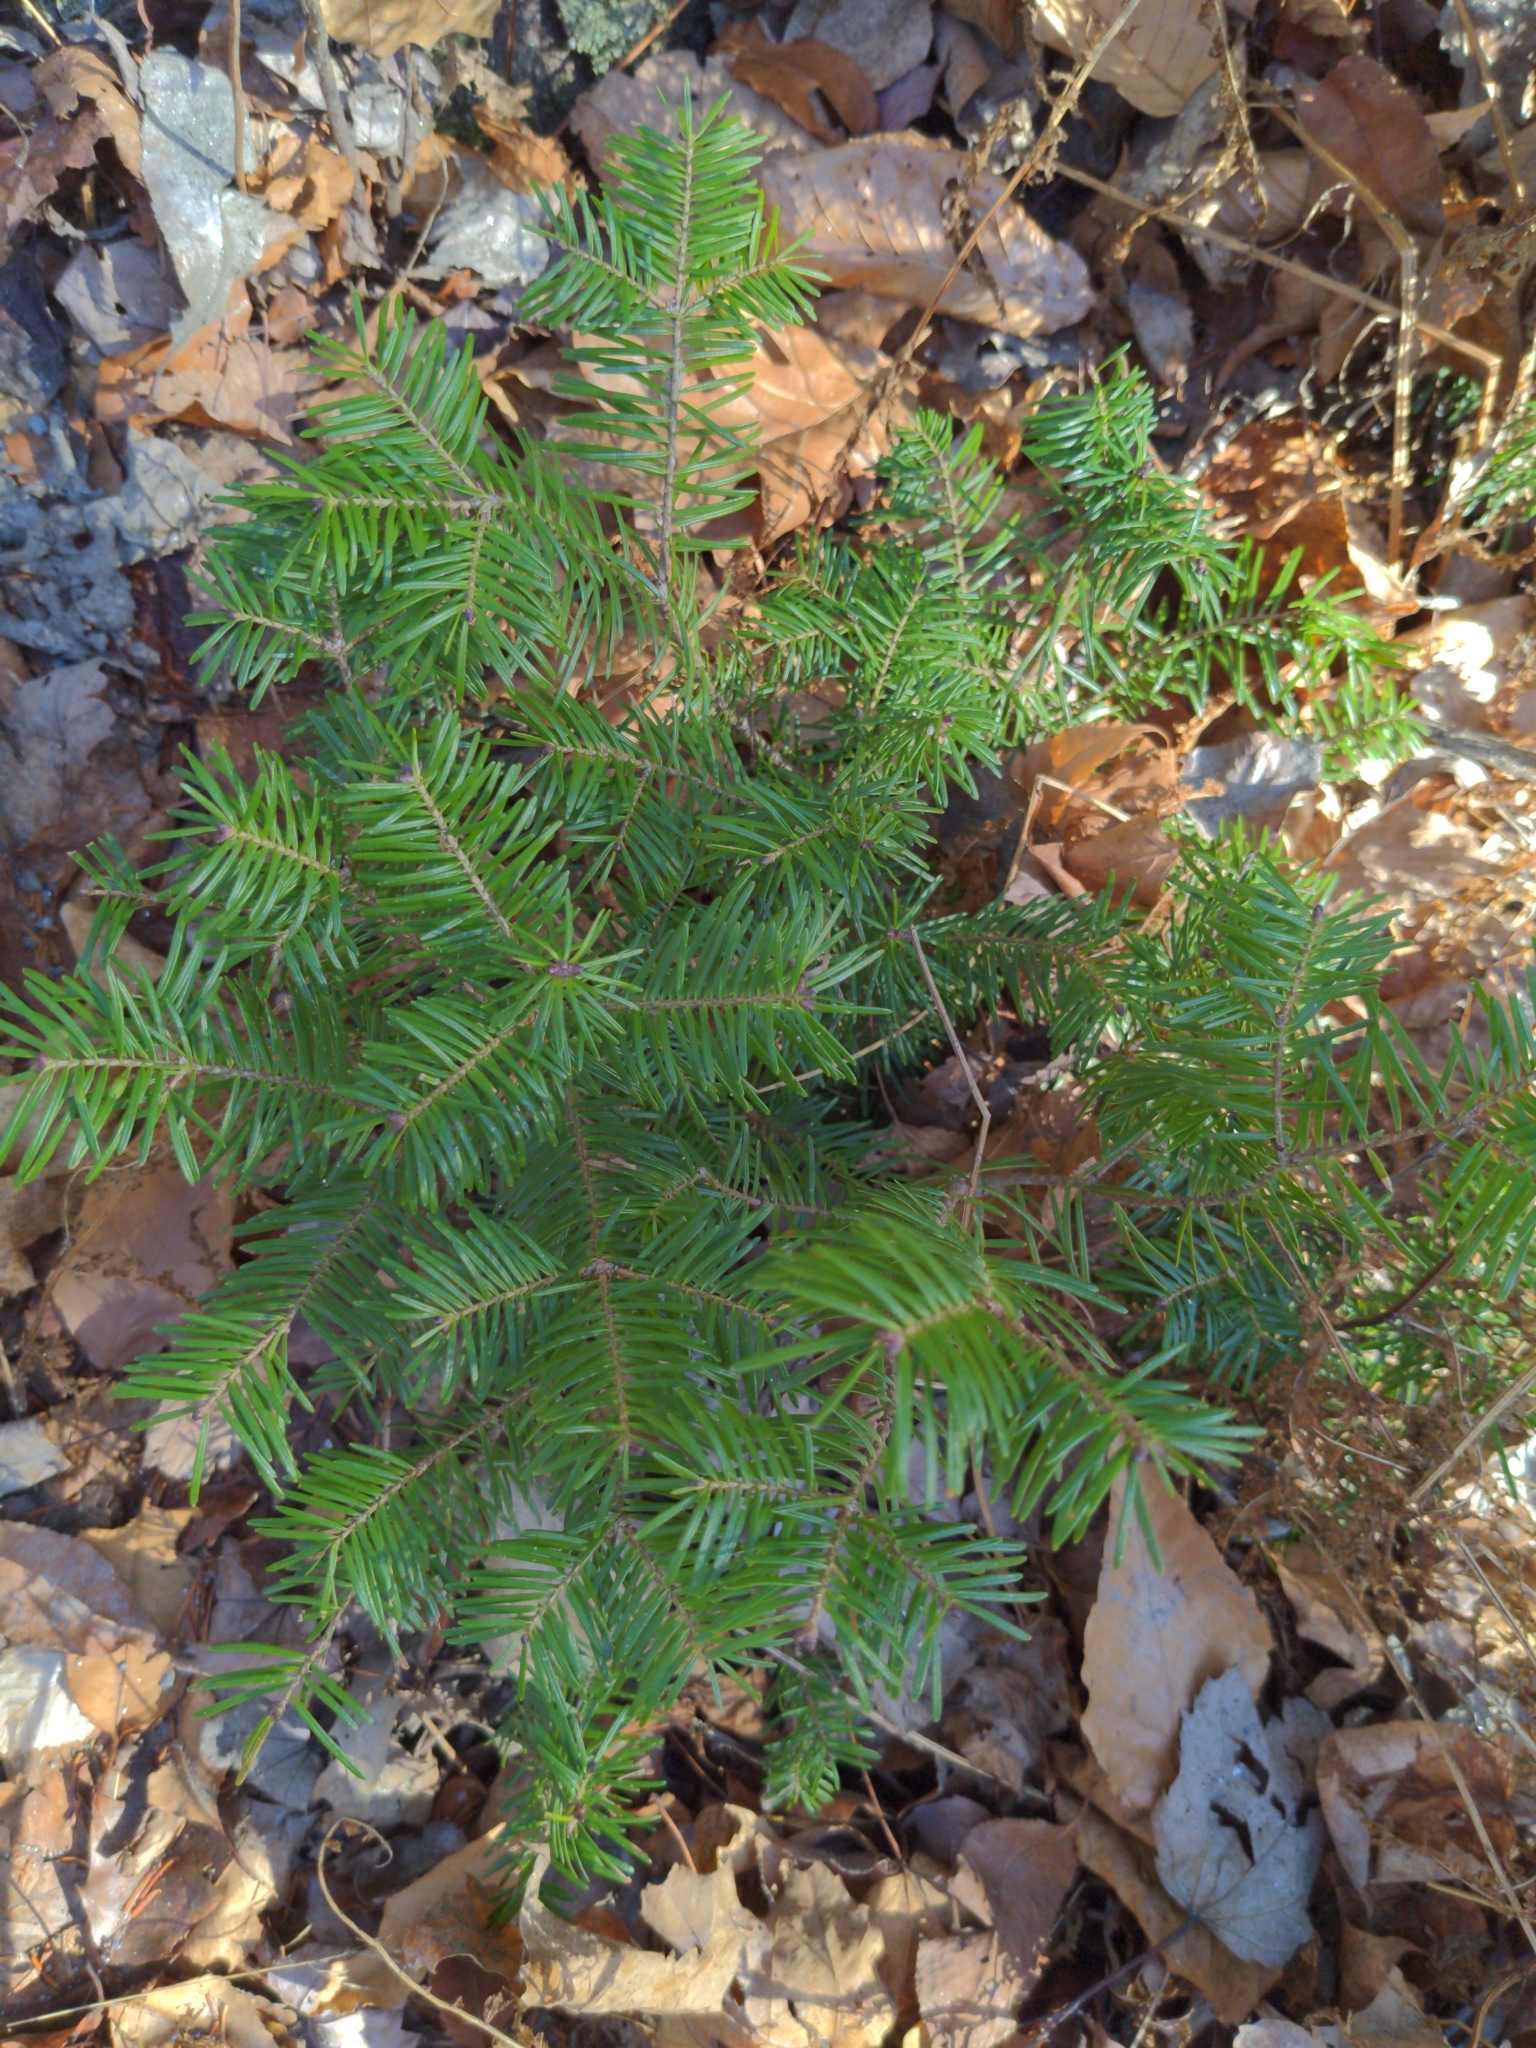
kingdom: Plantae
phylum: Tracheophyta
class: Pinopsida
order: Pinales
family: Pinaceae
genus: Abies
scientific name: Abies balsamea
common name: Balsam fir
